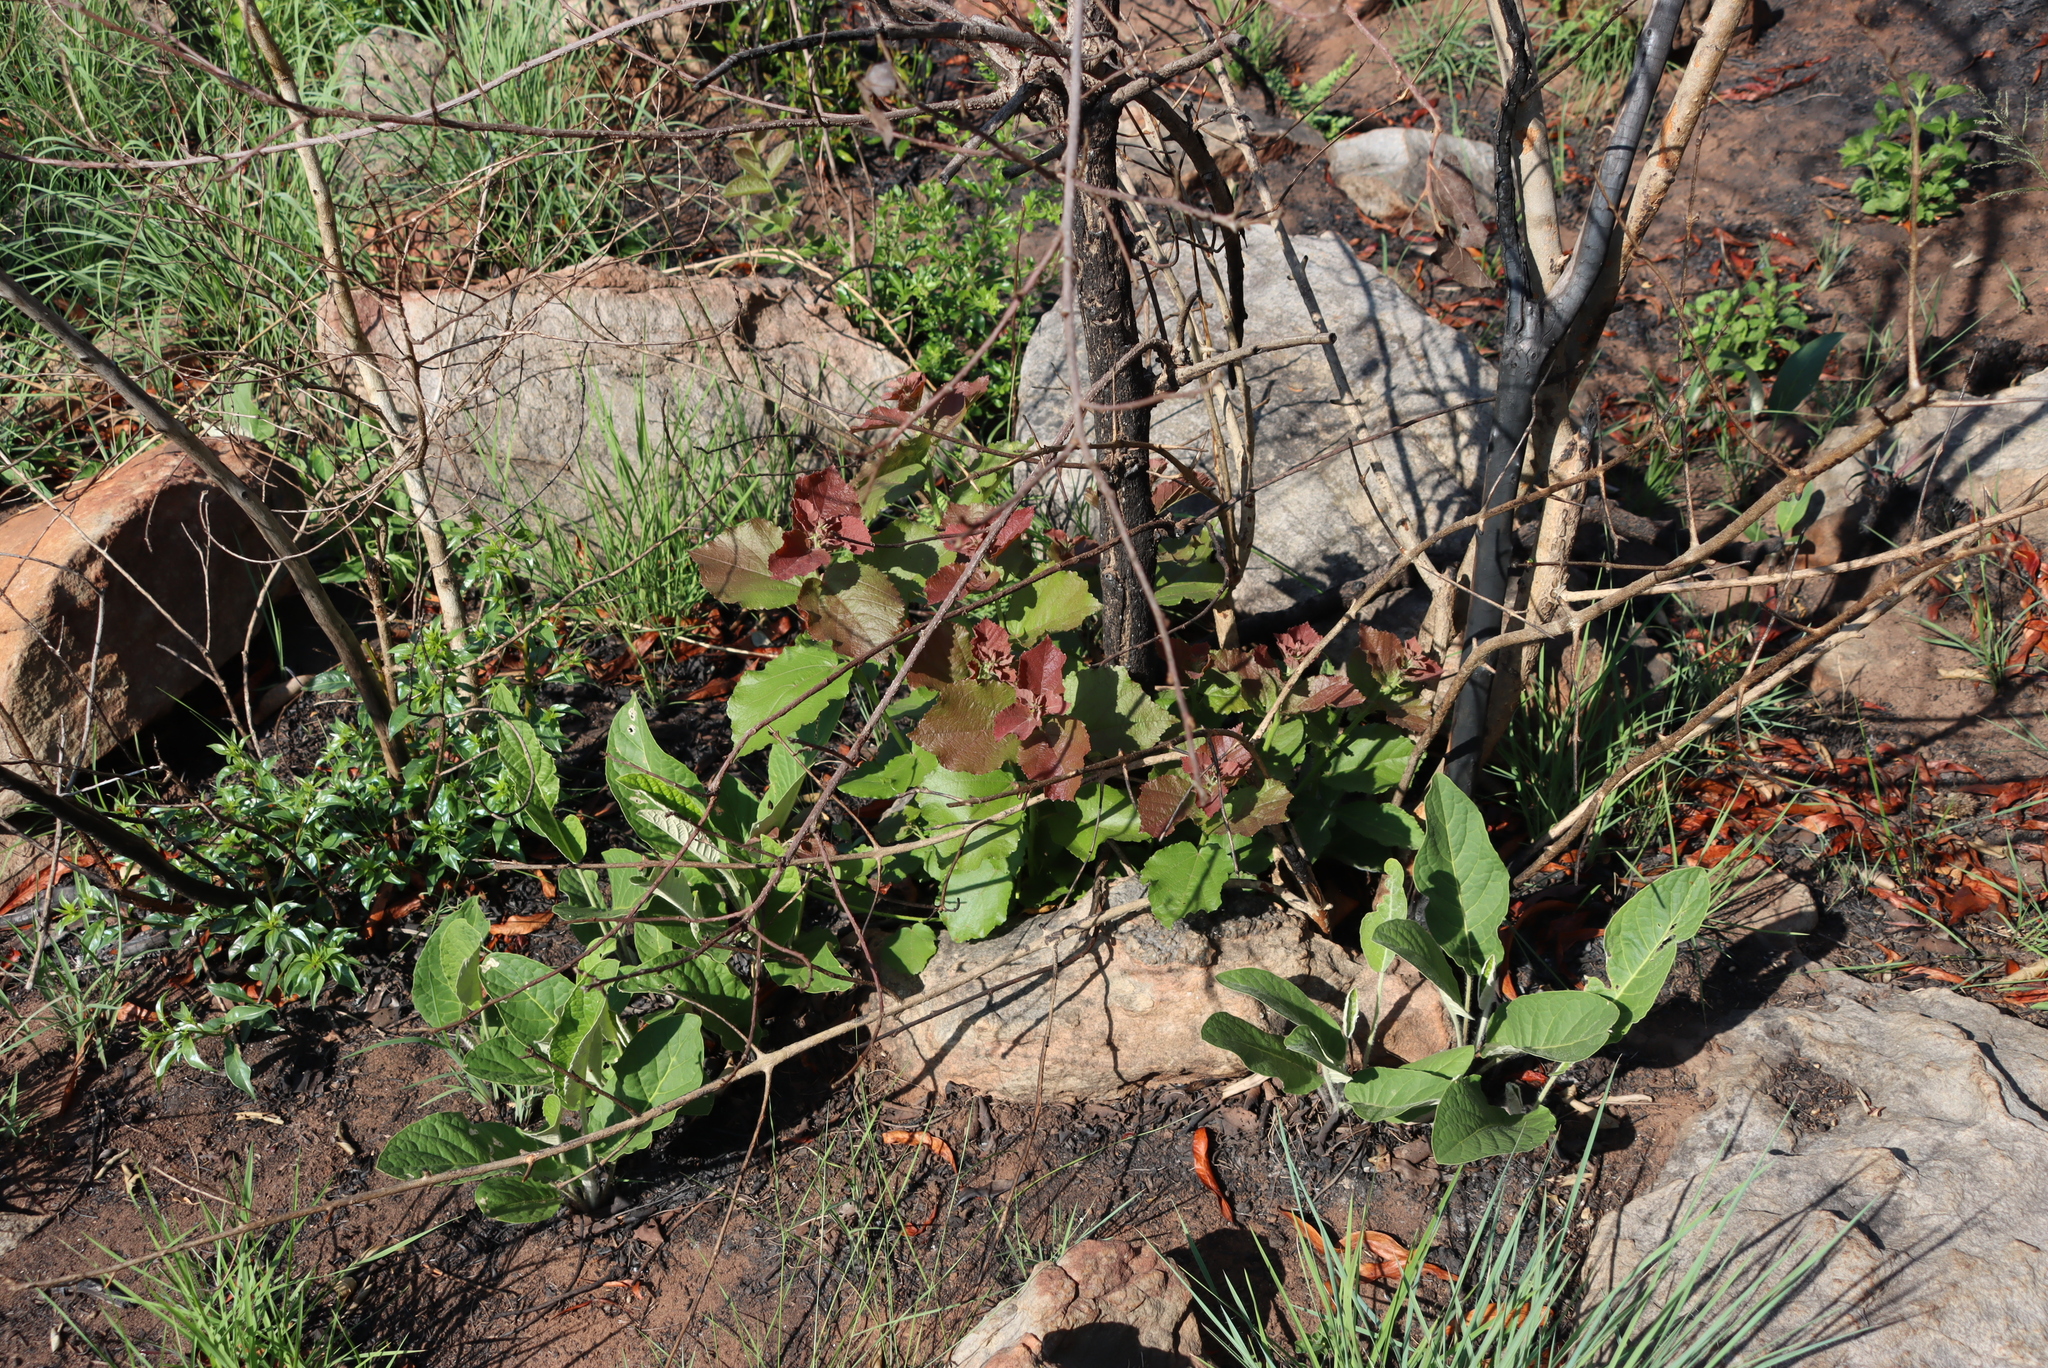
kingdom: Plantae
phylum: Tracheophyta
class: Magnoliopsida
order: Malvales
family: Malvaceae
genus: Dombeya
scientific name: Dombeya rotundifolia
